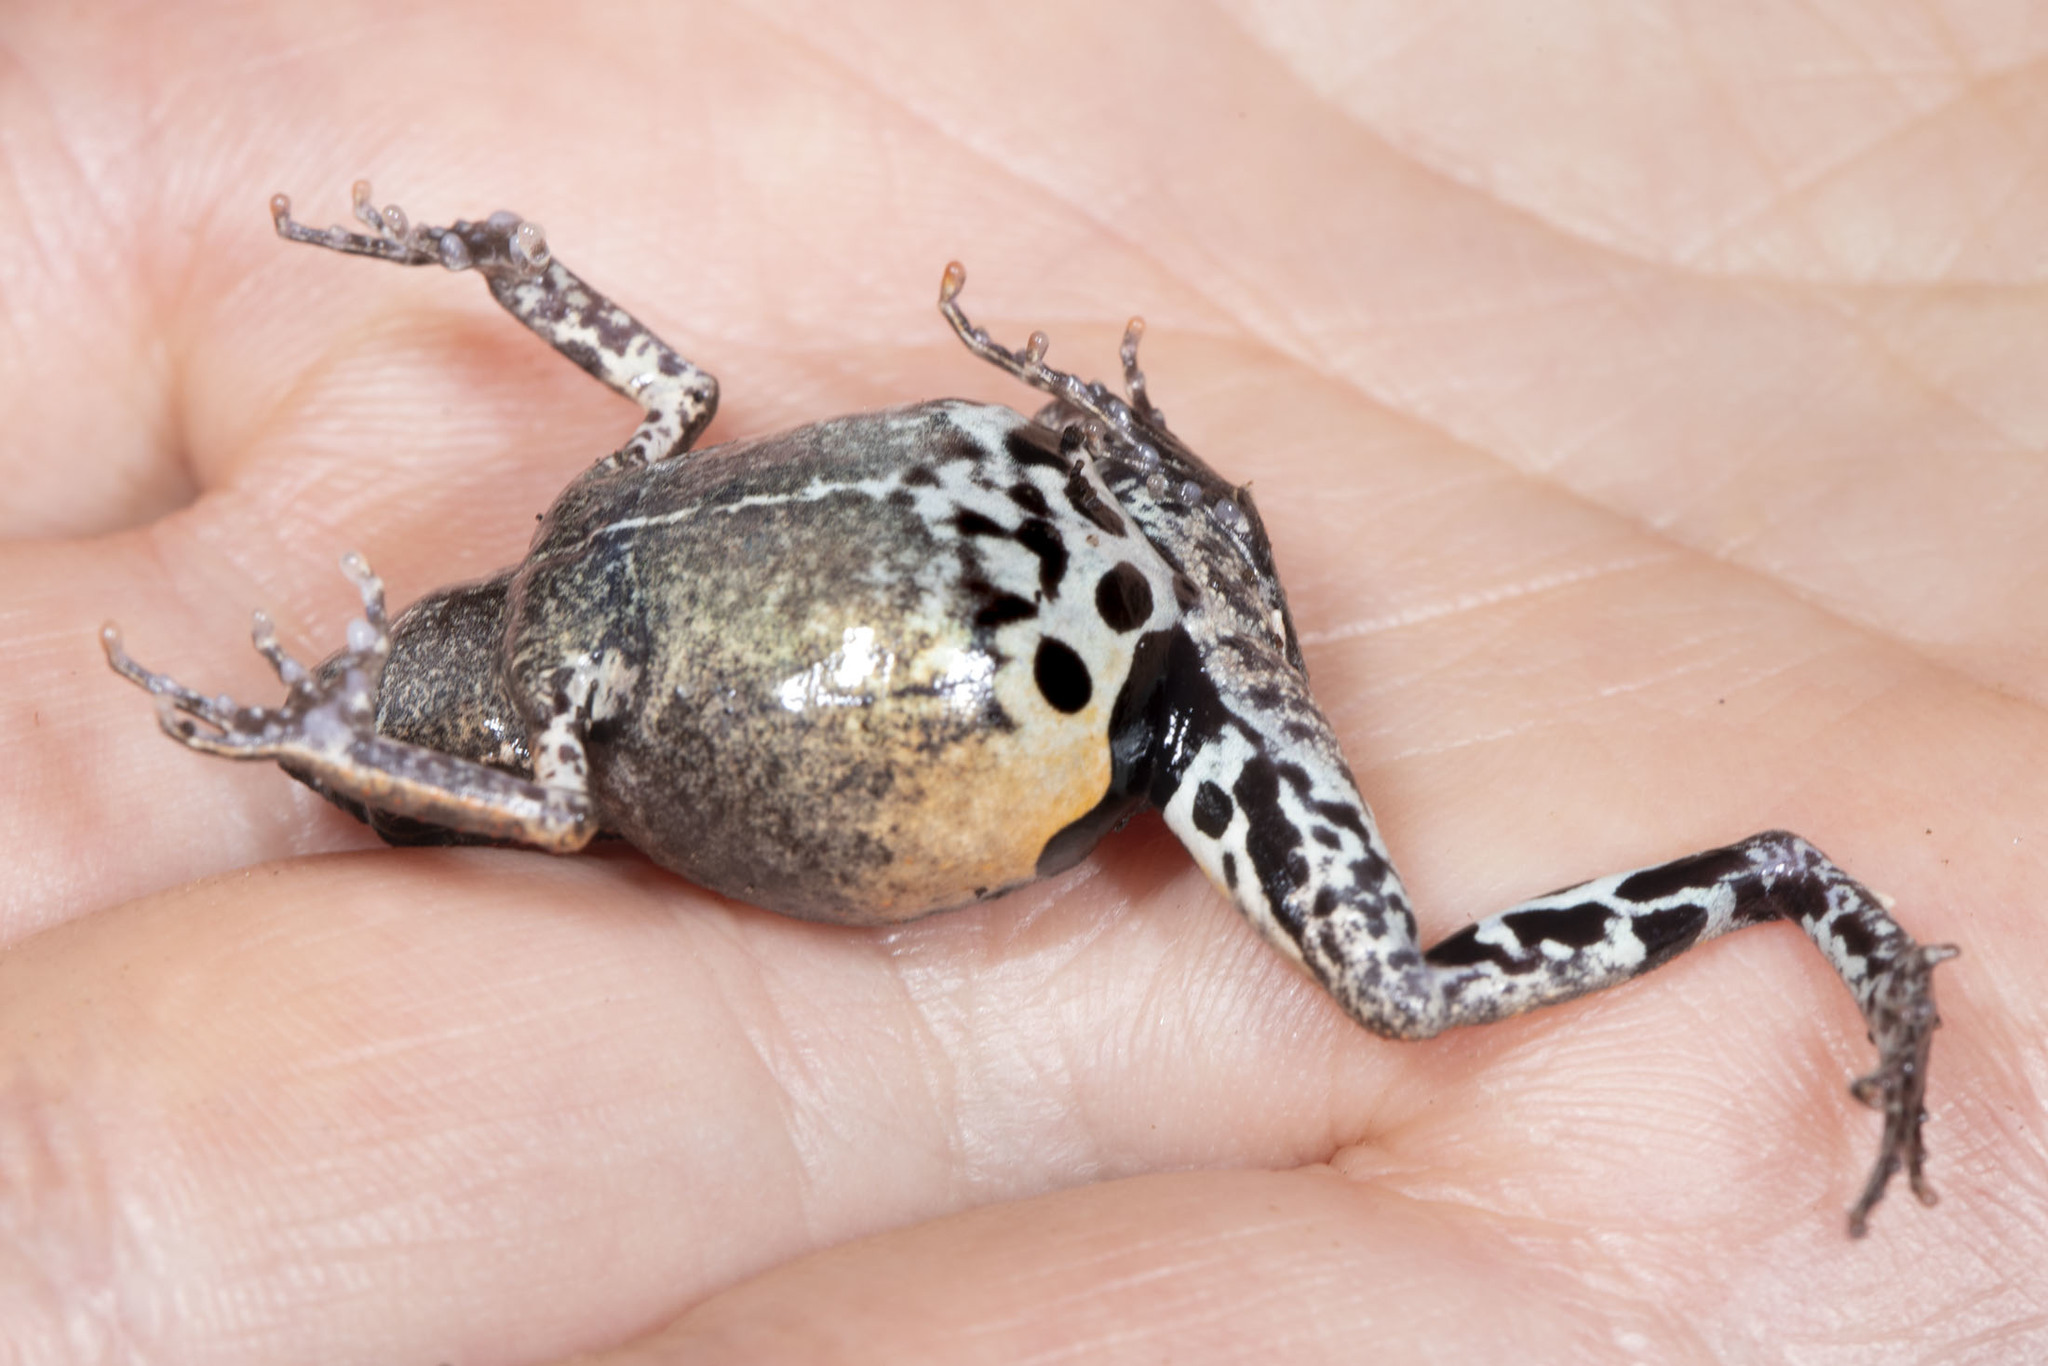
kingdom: Animalia
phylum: Chordata
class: Amphibia
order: Anura
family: Leptodactylidae
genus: Engystomops
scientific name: Engystomops petersi
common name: Peters’ dwarf frog
